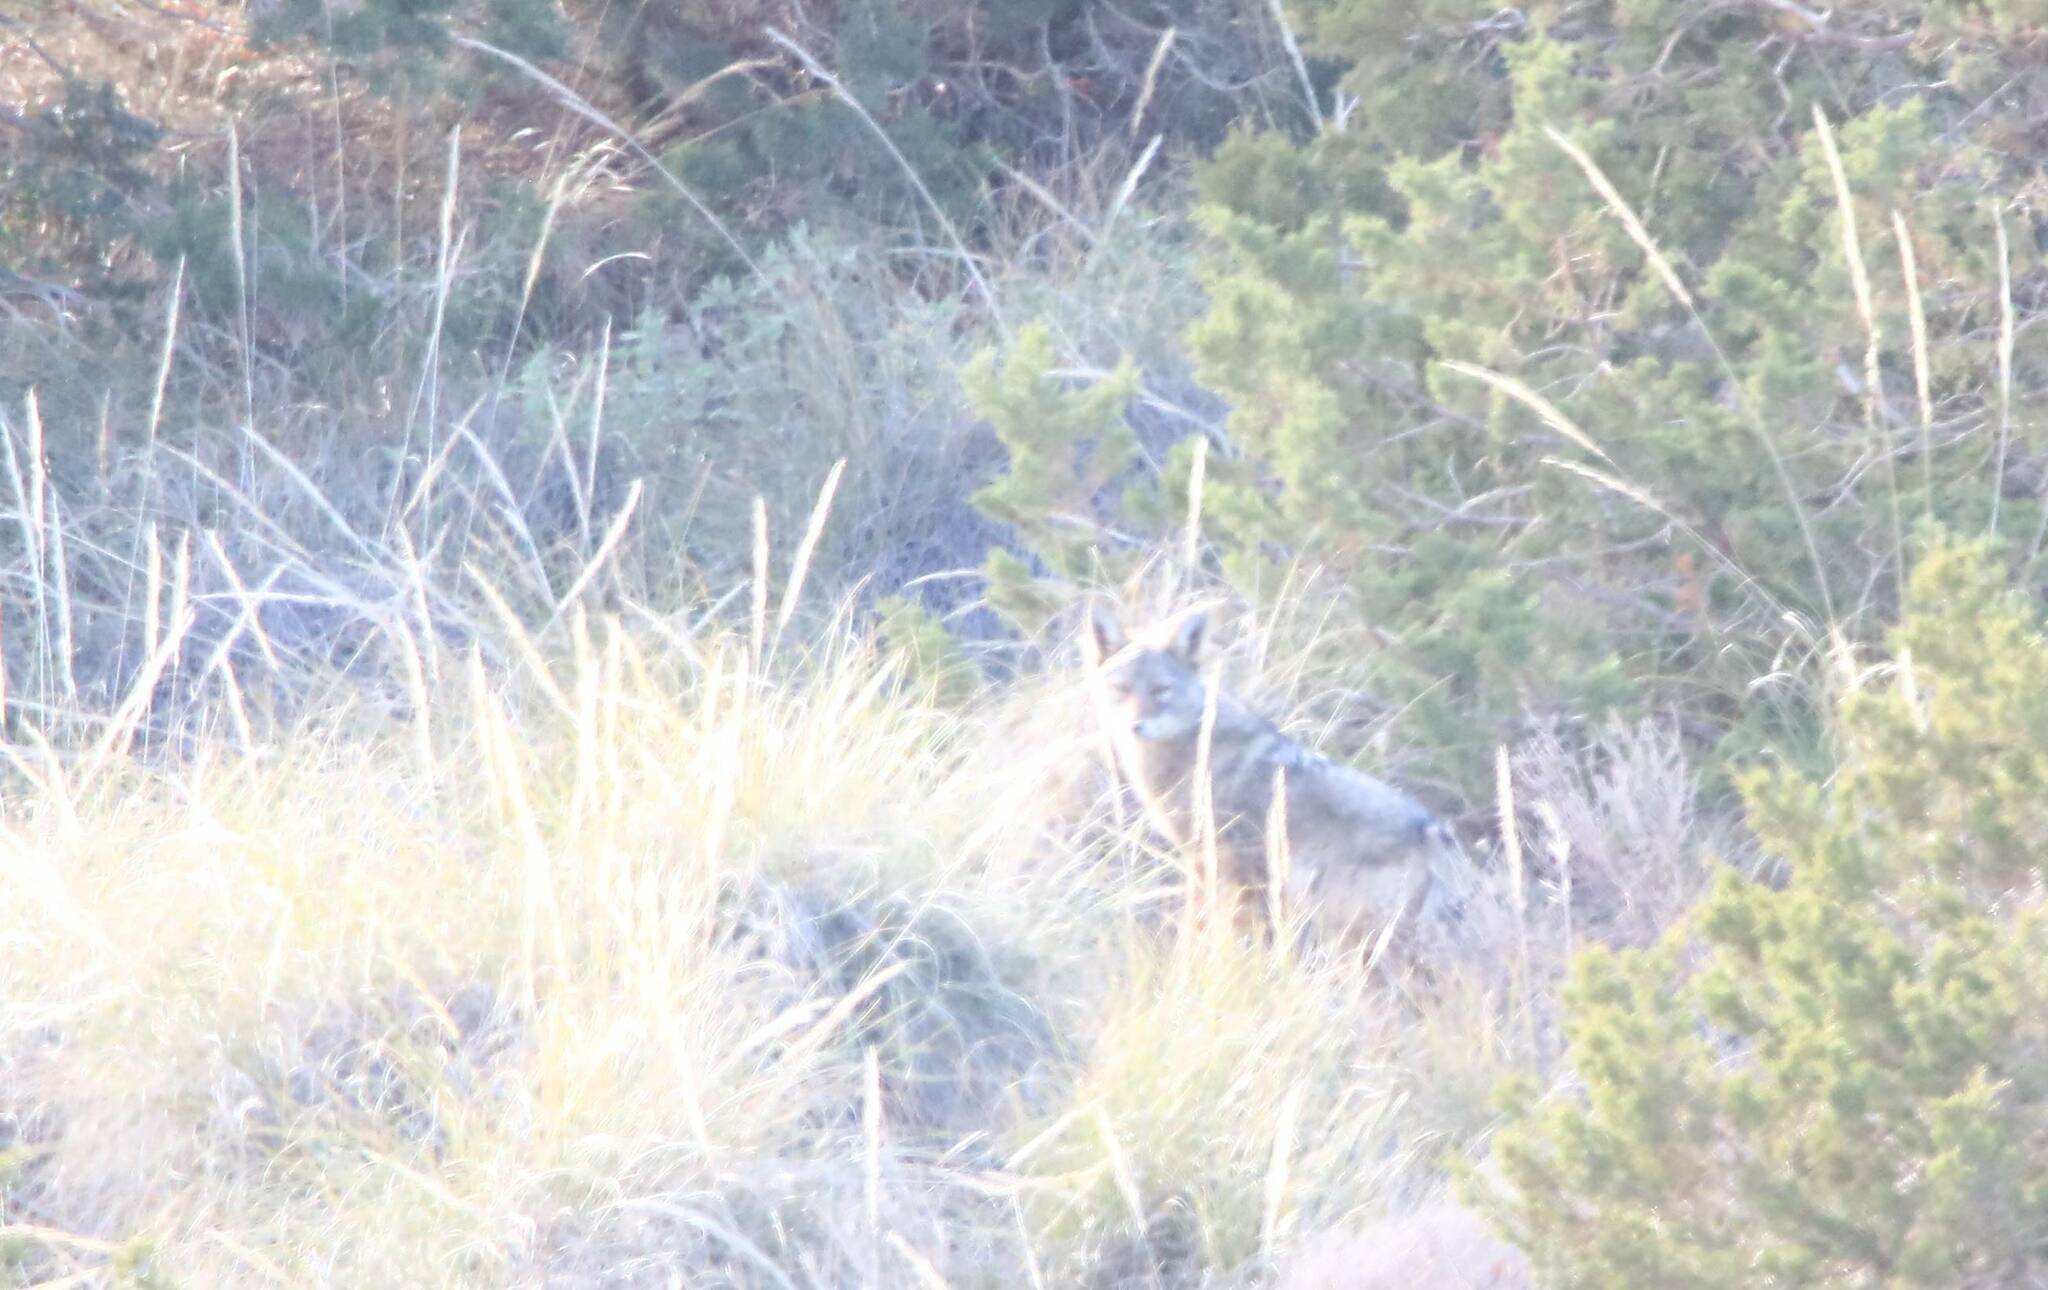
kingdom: Animalia
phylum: Chordata
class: Mammalia
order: Carnivora
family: Canidae
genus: Canis
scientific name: Canis lupaster
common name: African golden wolf
